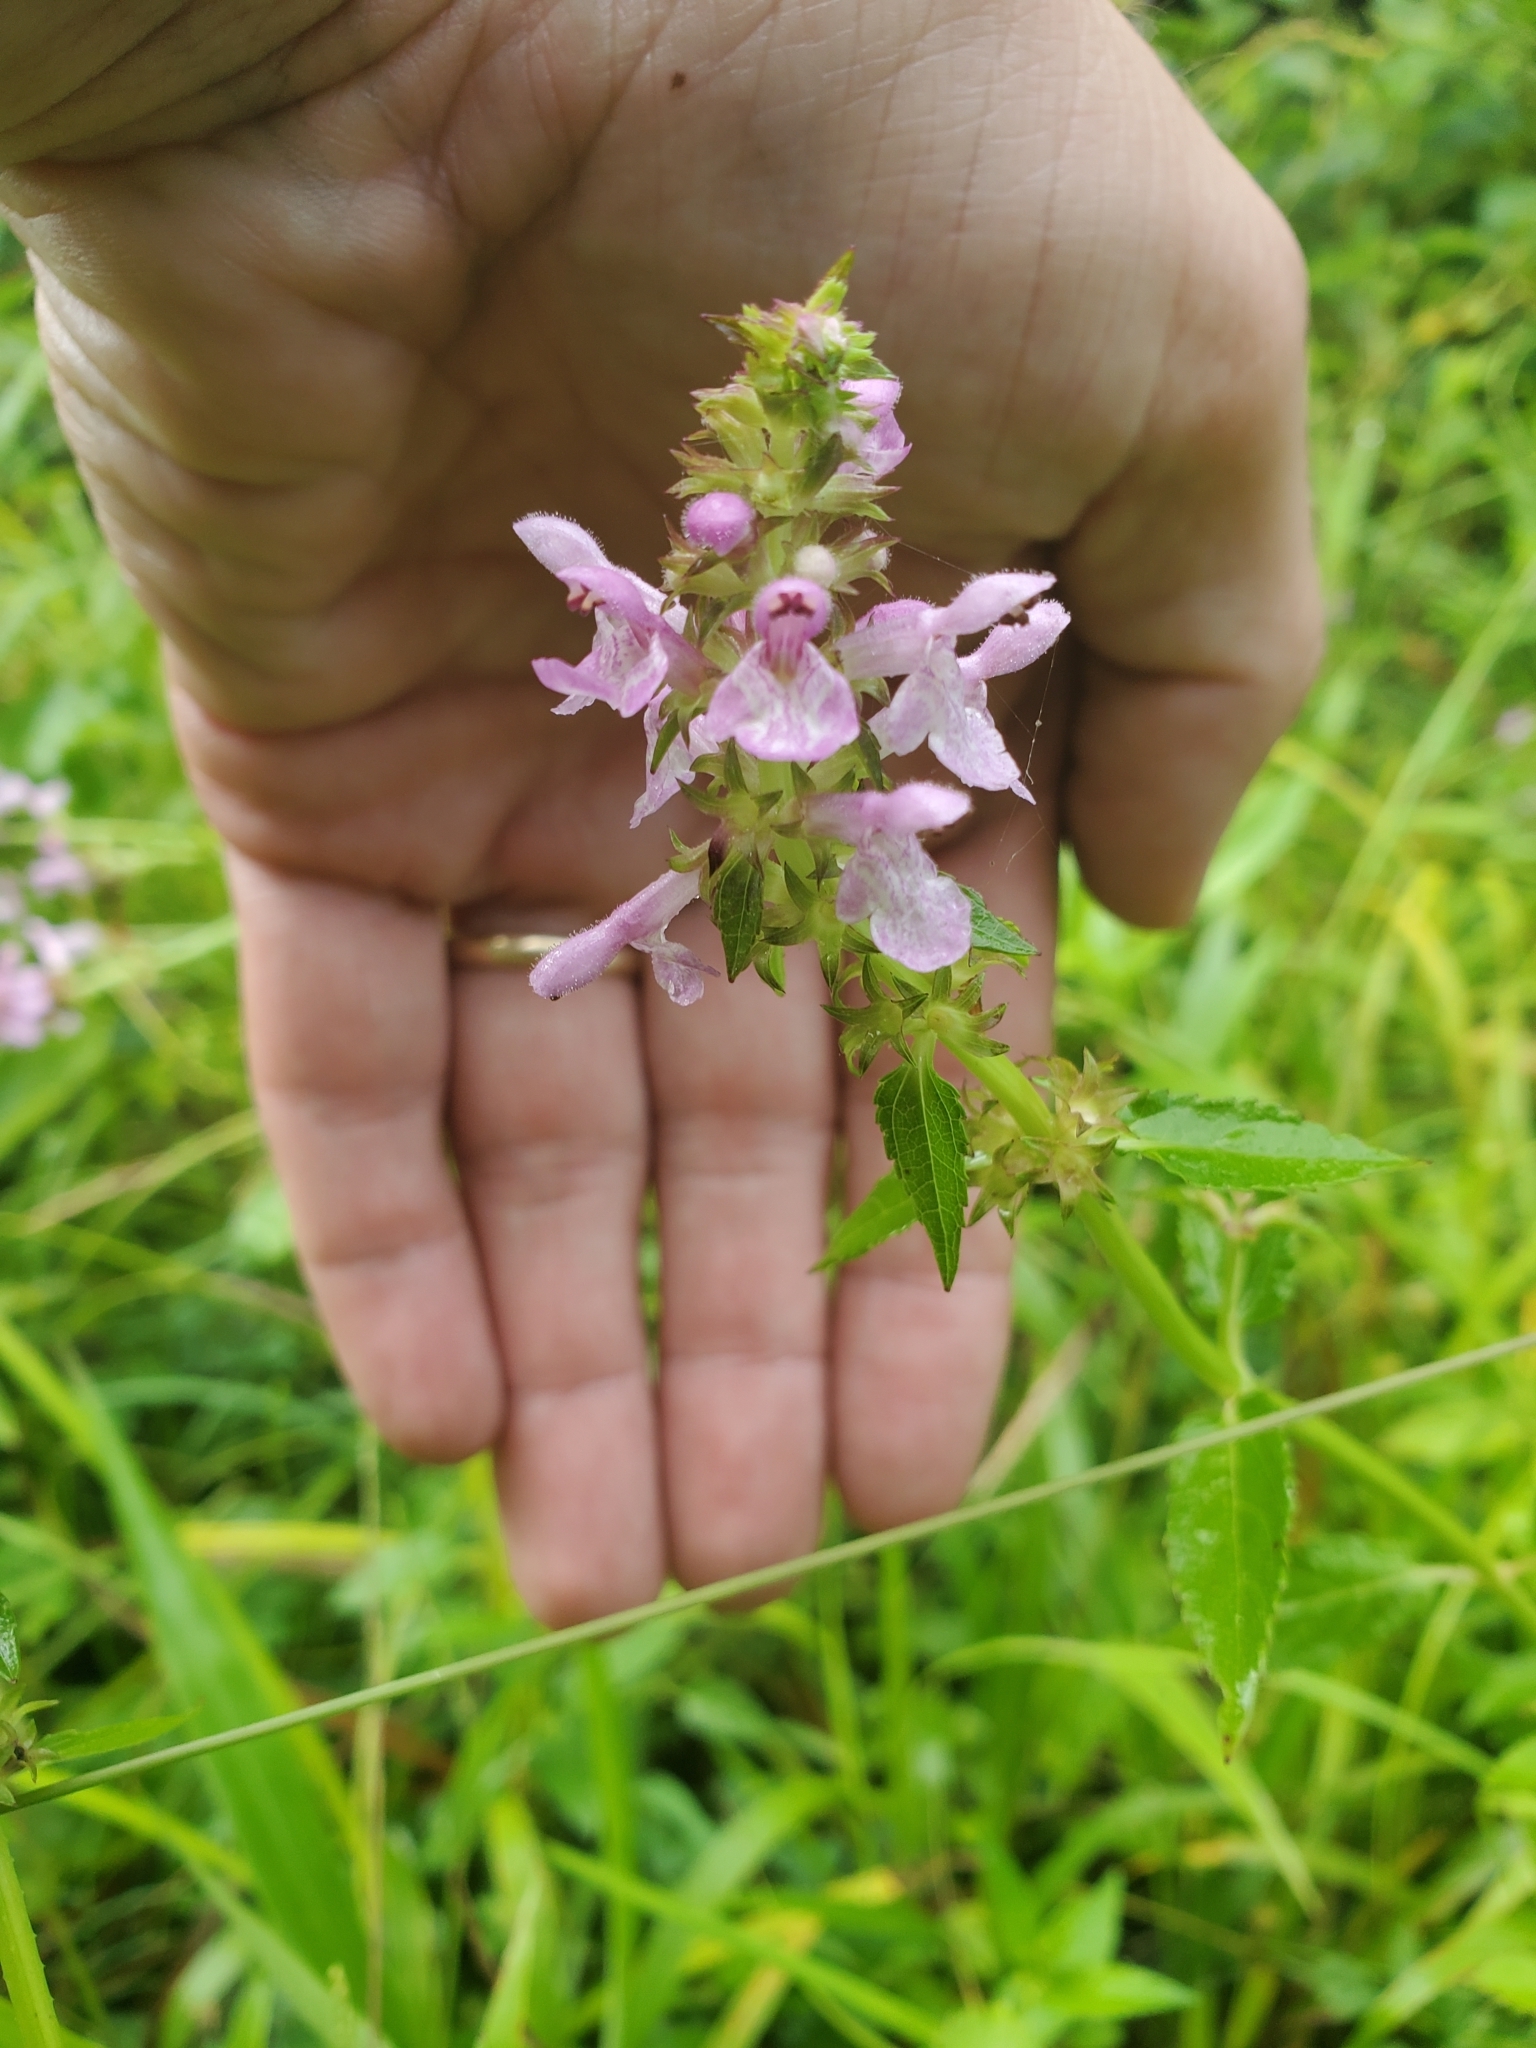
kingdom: Plantae
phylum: Tracheophyta
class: Magnoliopsida
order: Lamiales
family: Lamiaceae
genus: Stachys
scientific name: Stachys floridana
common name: Florida betony
